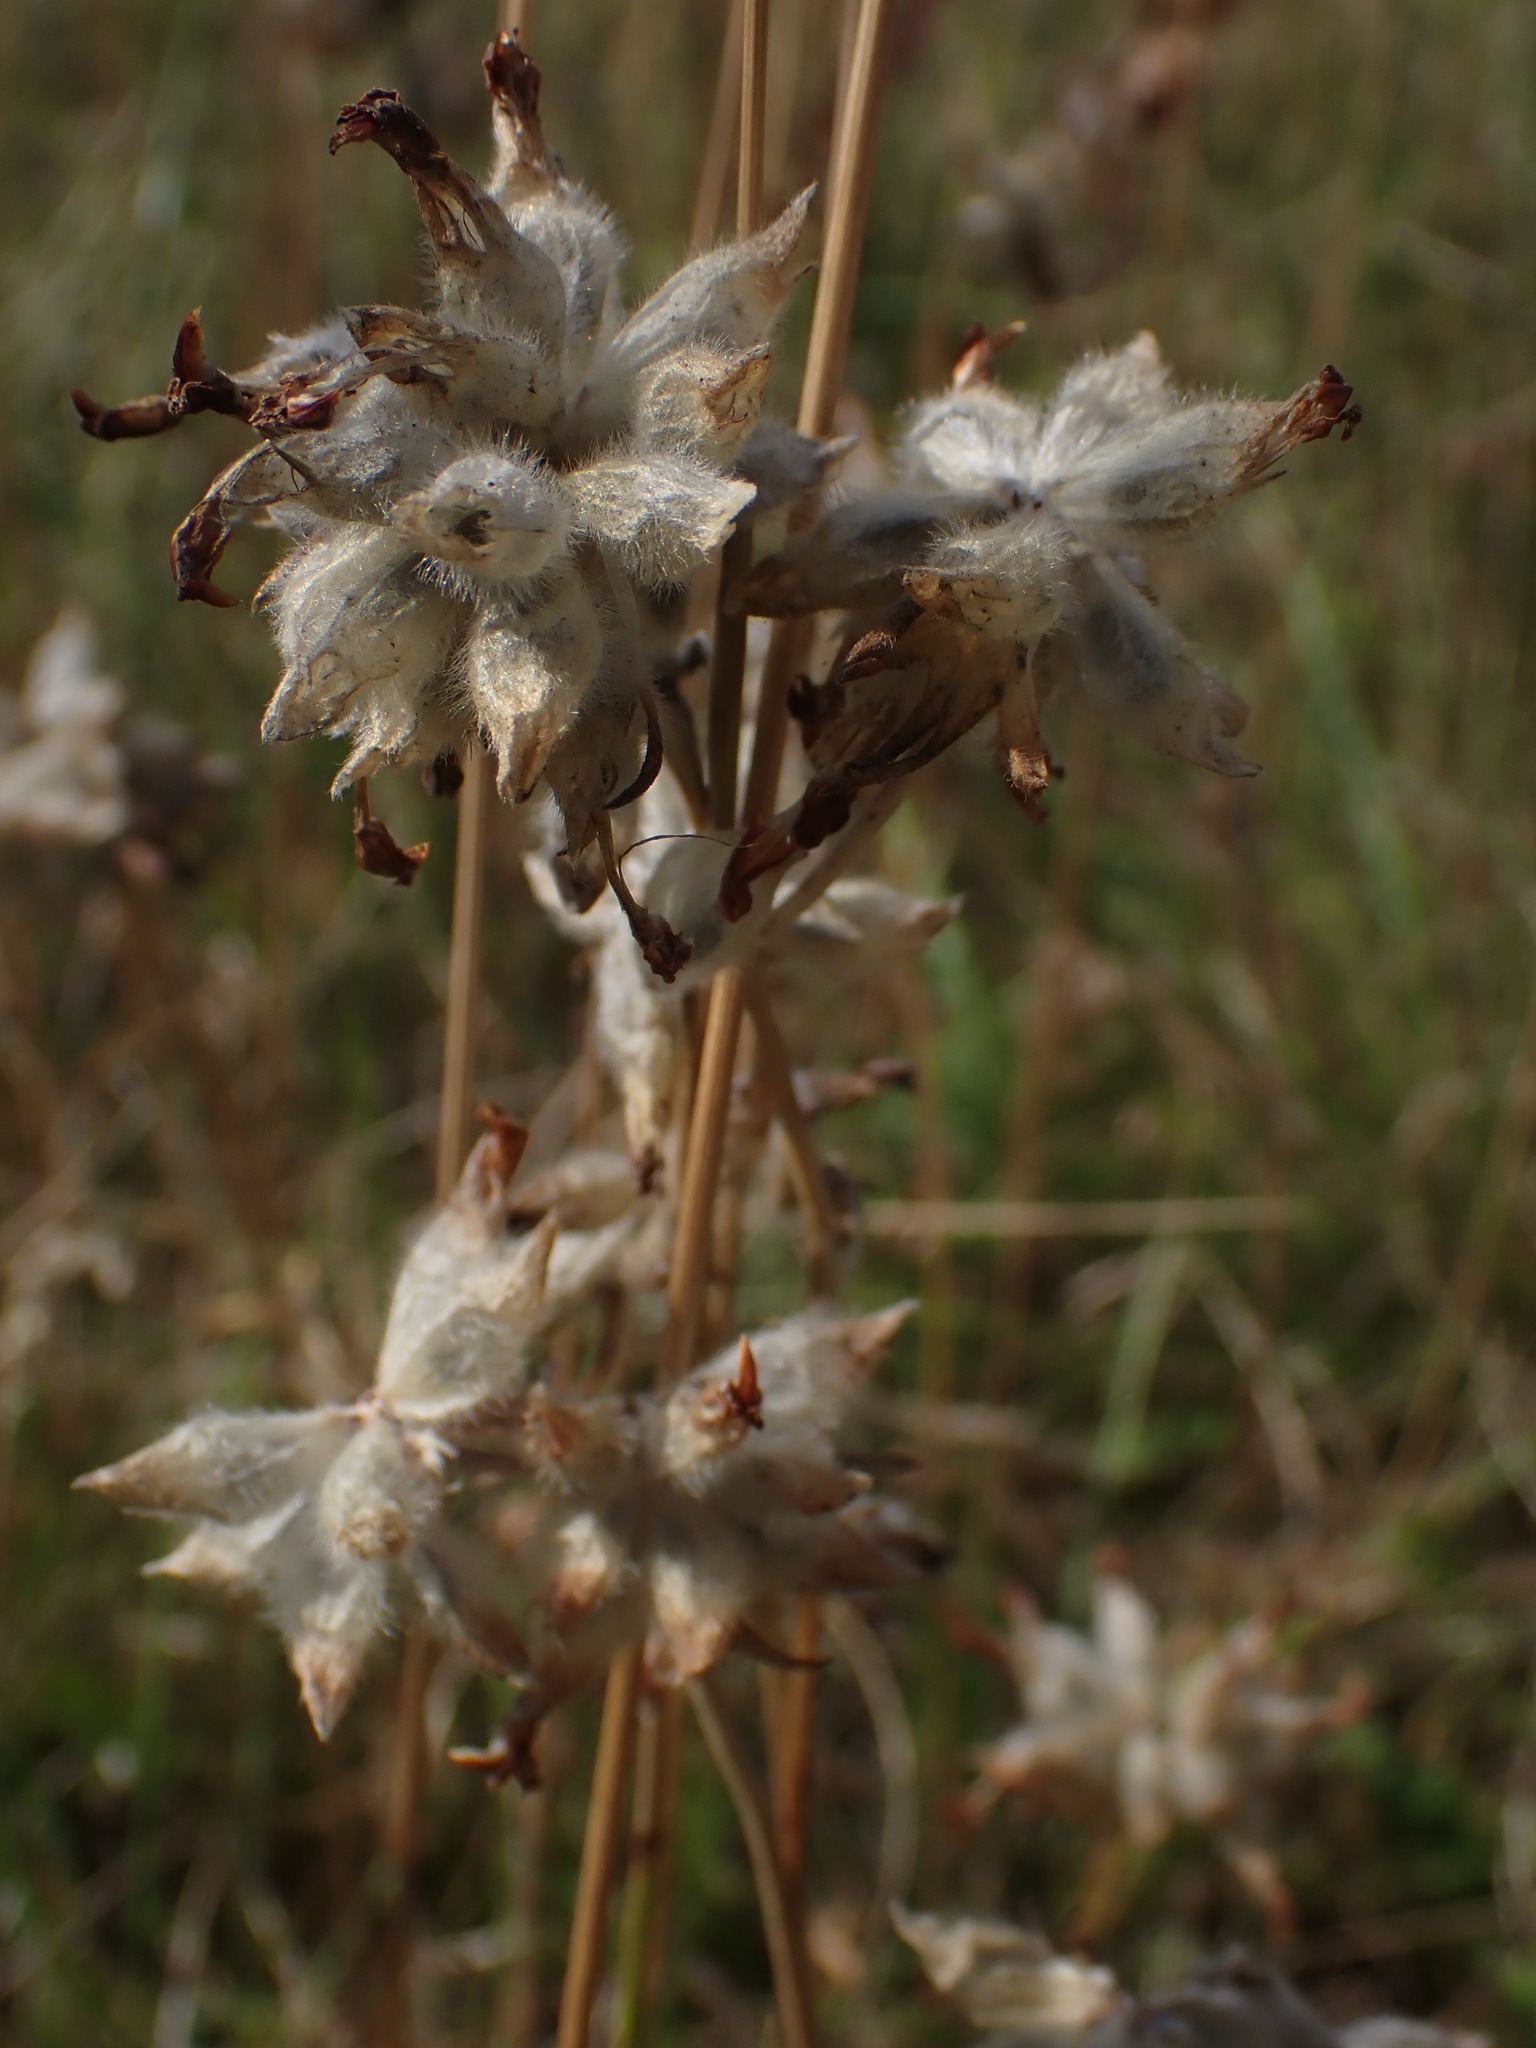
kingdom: Plantae
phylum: Tracheophyta
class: Magnoliopsida
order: Fabales
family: Fabaceae
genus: Anthyllis
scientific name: Anthyllis vulneraria
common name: Kidney vetch
